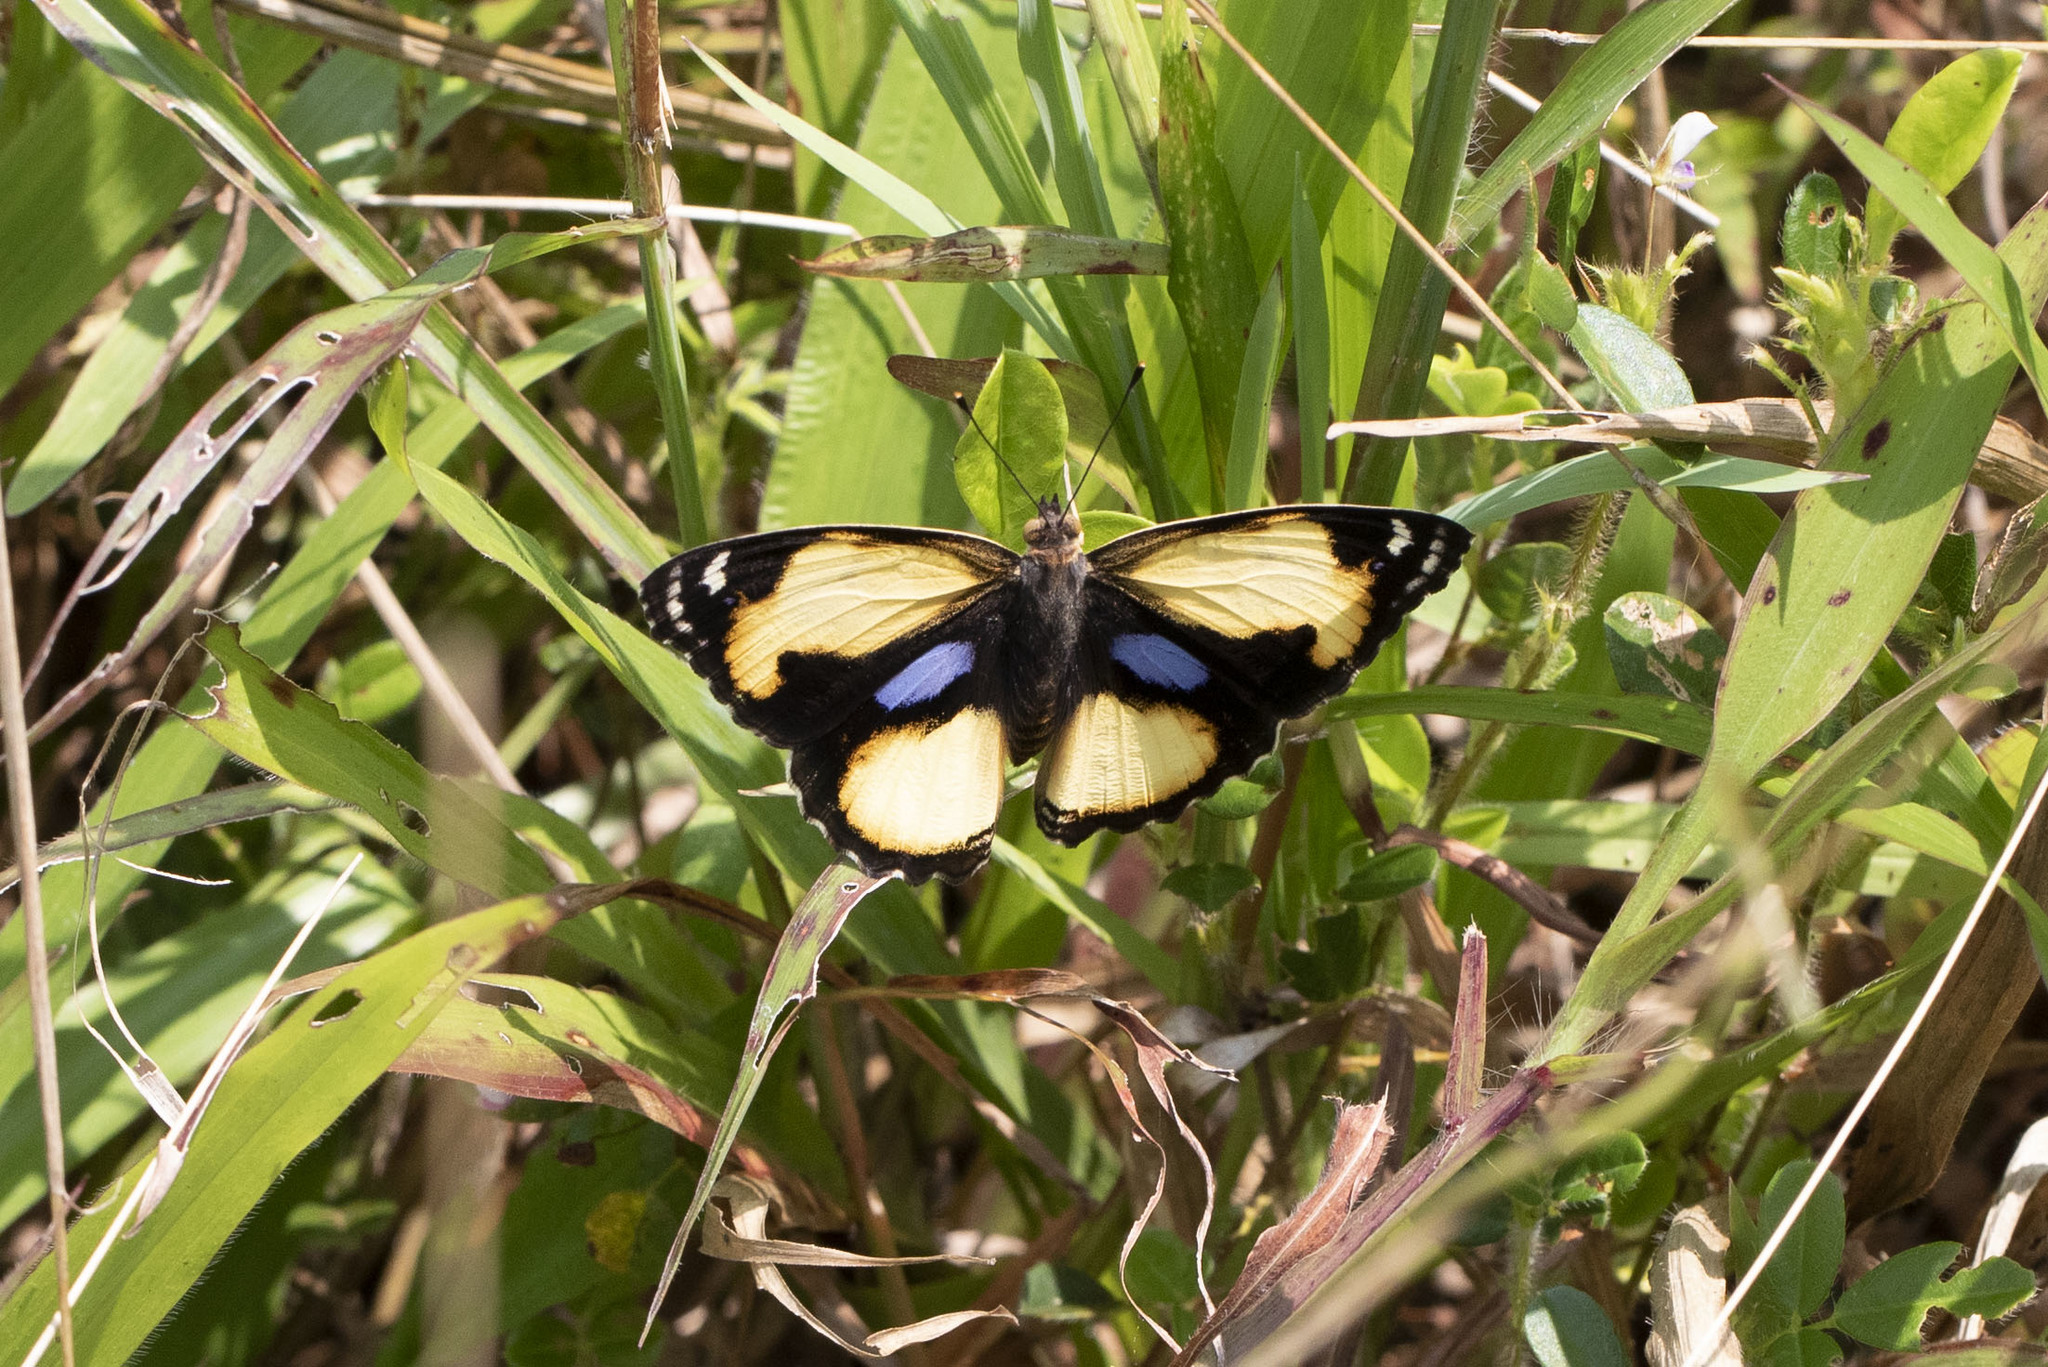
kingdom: Animalia
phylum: Arthropoda
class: Insecta
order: Lepidoptera
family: Nymphalidae
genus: Junonia
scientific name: Junonia hierta
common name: Yellow pansy
